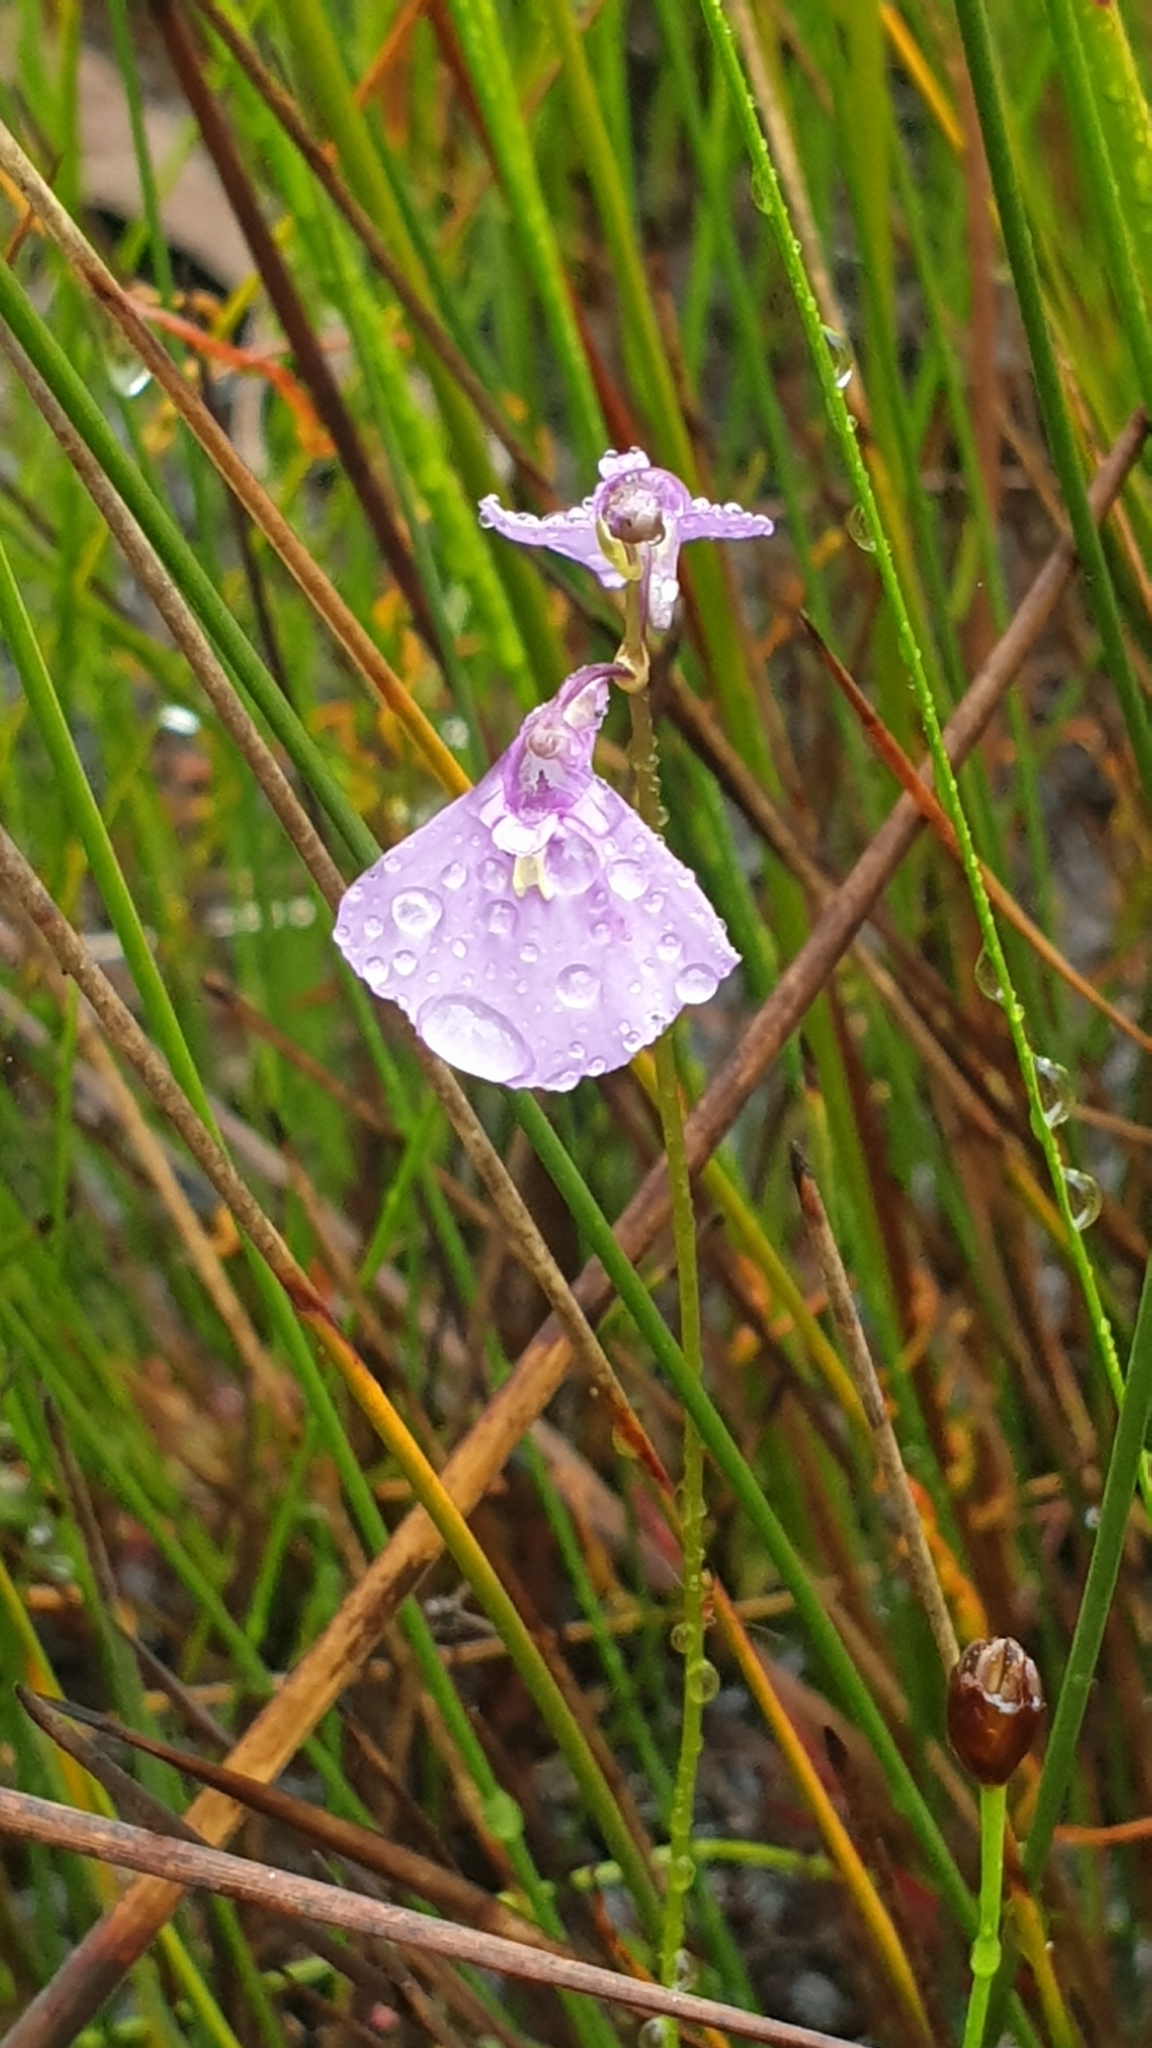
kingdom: Plantae
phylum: Tracheophyta
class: Magnoliopsida
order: Lamiales
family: Lentibulariaceae
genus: Utricularia
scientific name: Utricularia dichotoma
